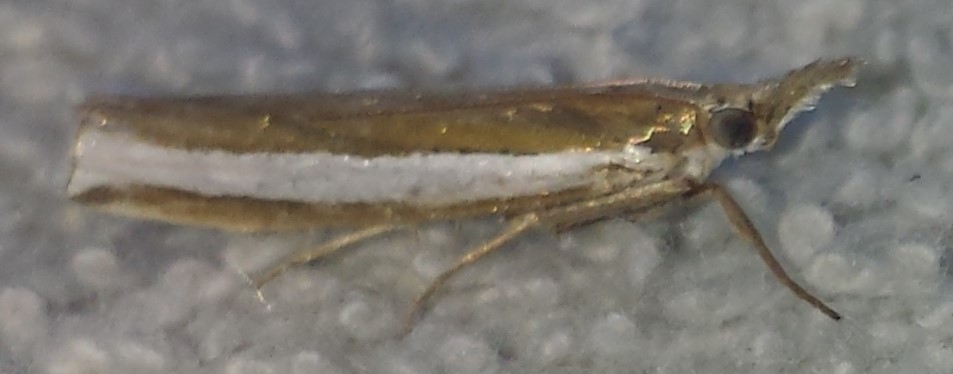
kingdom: Animalia
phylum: Arthropoda
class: Insecta
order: Lepidoptera
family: Crambidae
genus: Crambus
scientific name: Crambus unistriatellus
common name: Wide-stripe grass-veneer moth
